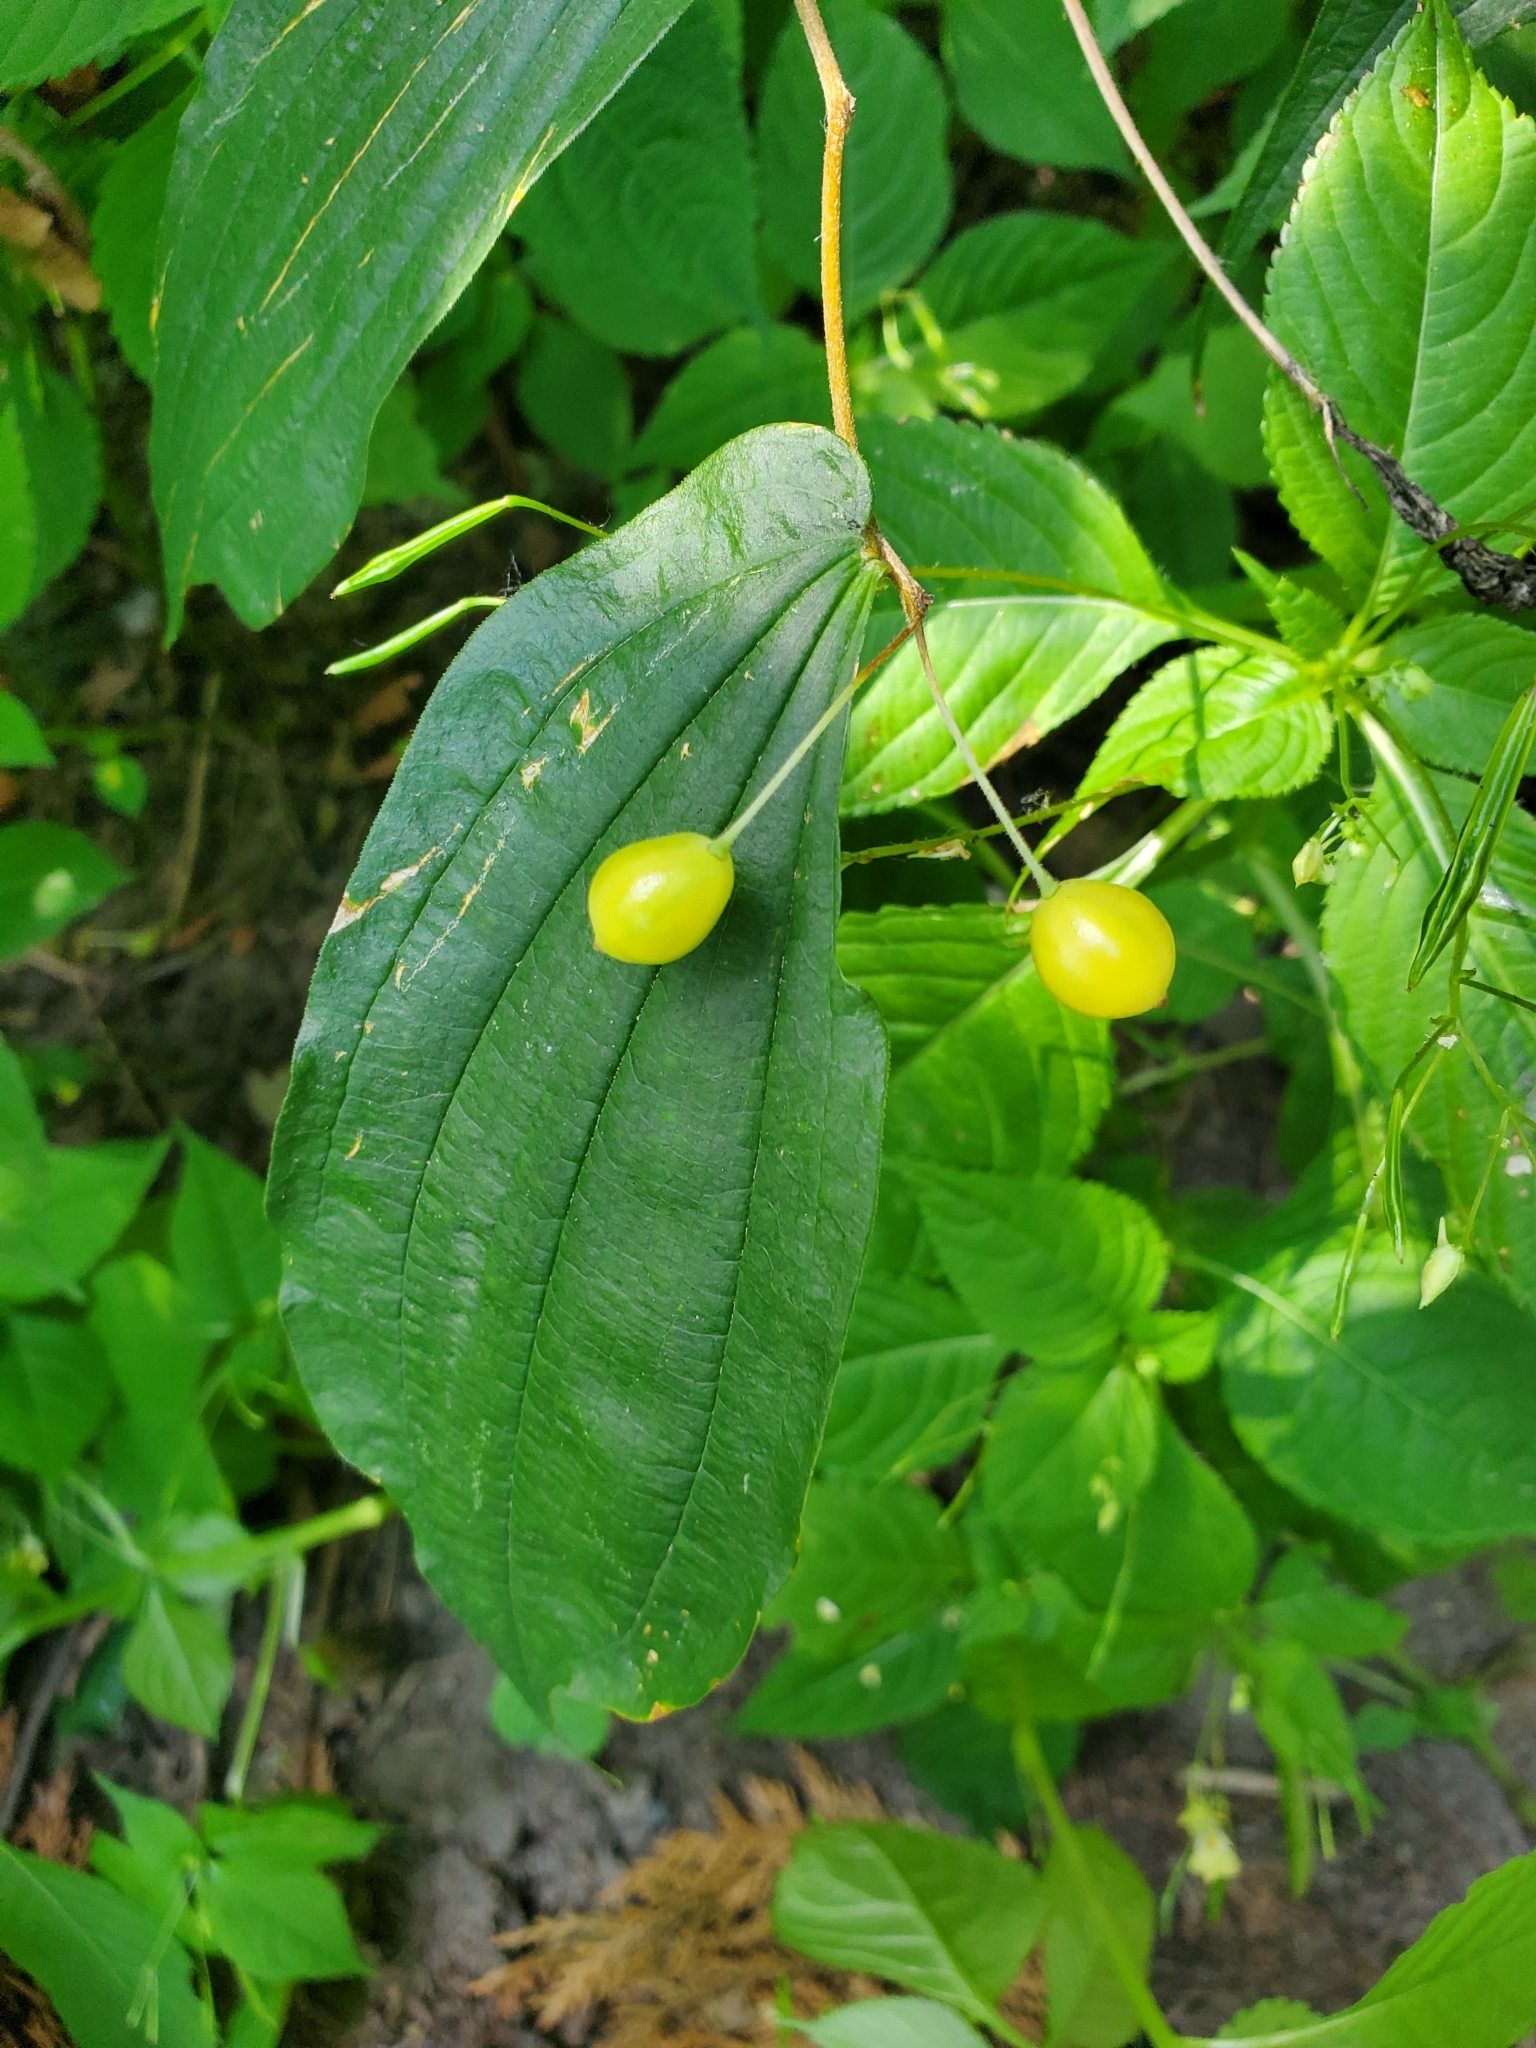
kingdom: Plantae
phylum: Tracheophyta
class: Liliopsida
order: Liliales
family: Liliaceae
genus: Prosartes
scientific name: Prosartes hookeri
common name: Fairy-bells
